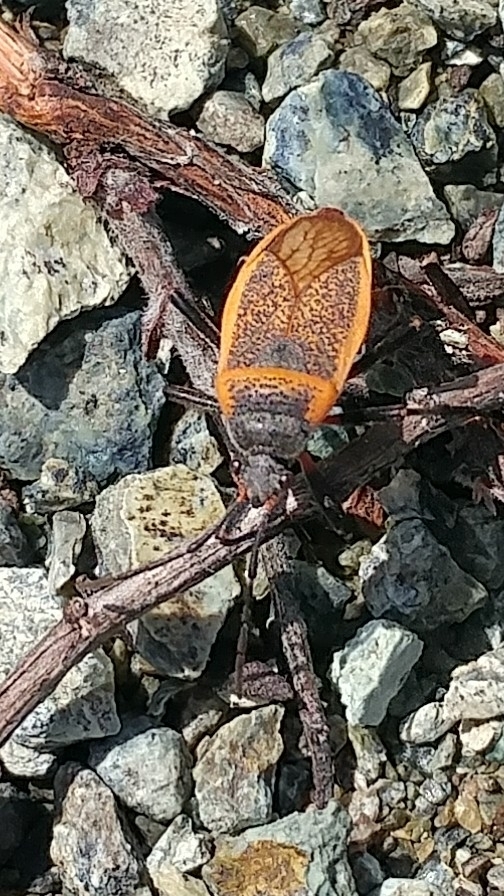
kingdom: Animalia
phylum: Arthropoda
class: Insecta
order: Hemiptera
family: Largidae
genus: Largus
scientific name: Largus californicus
